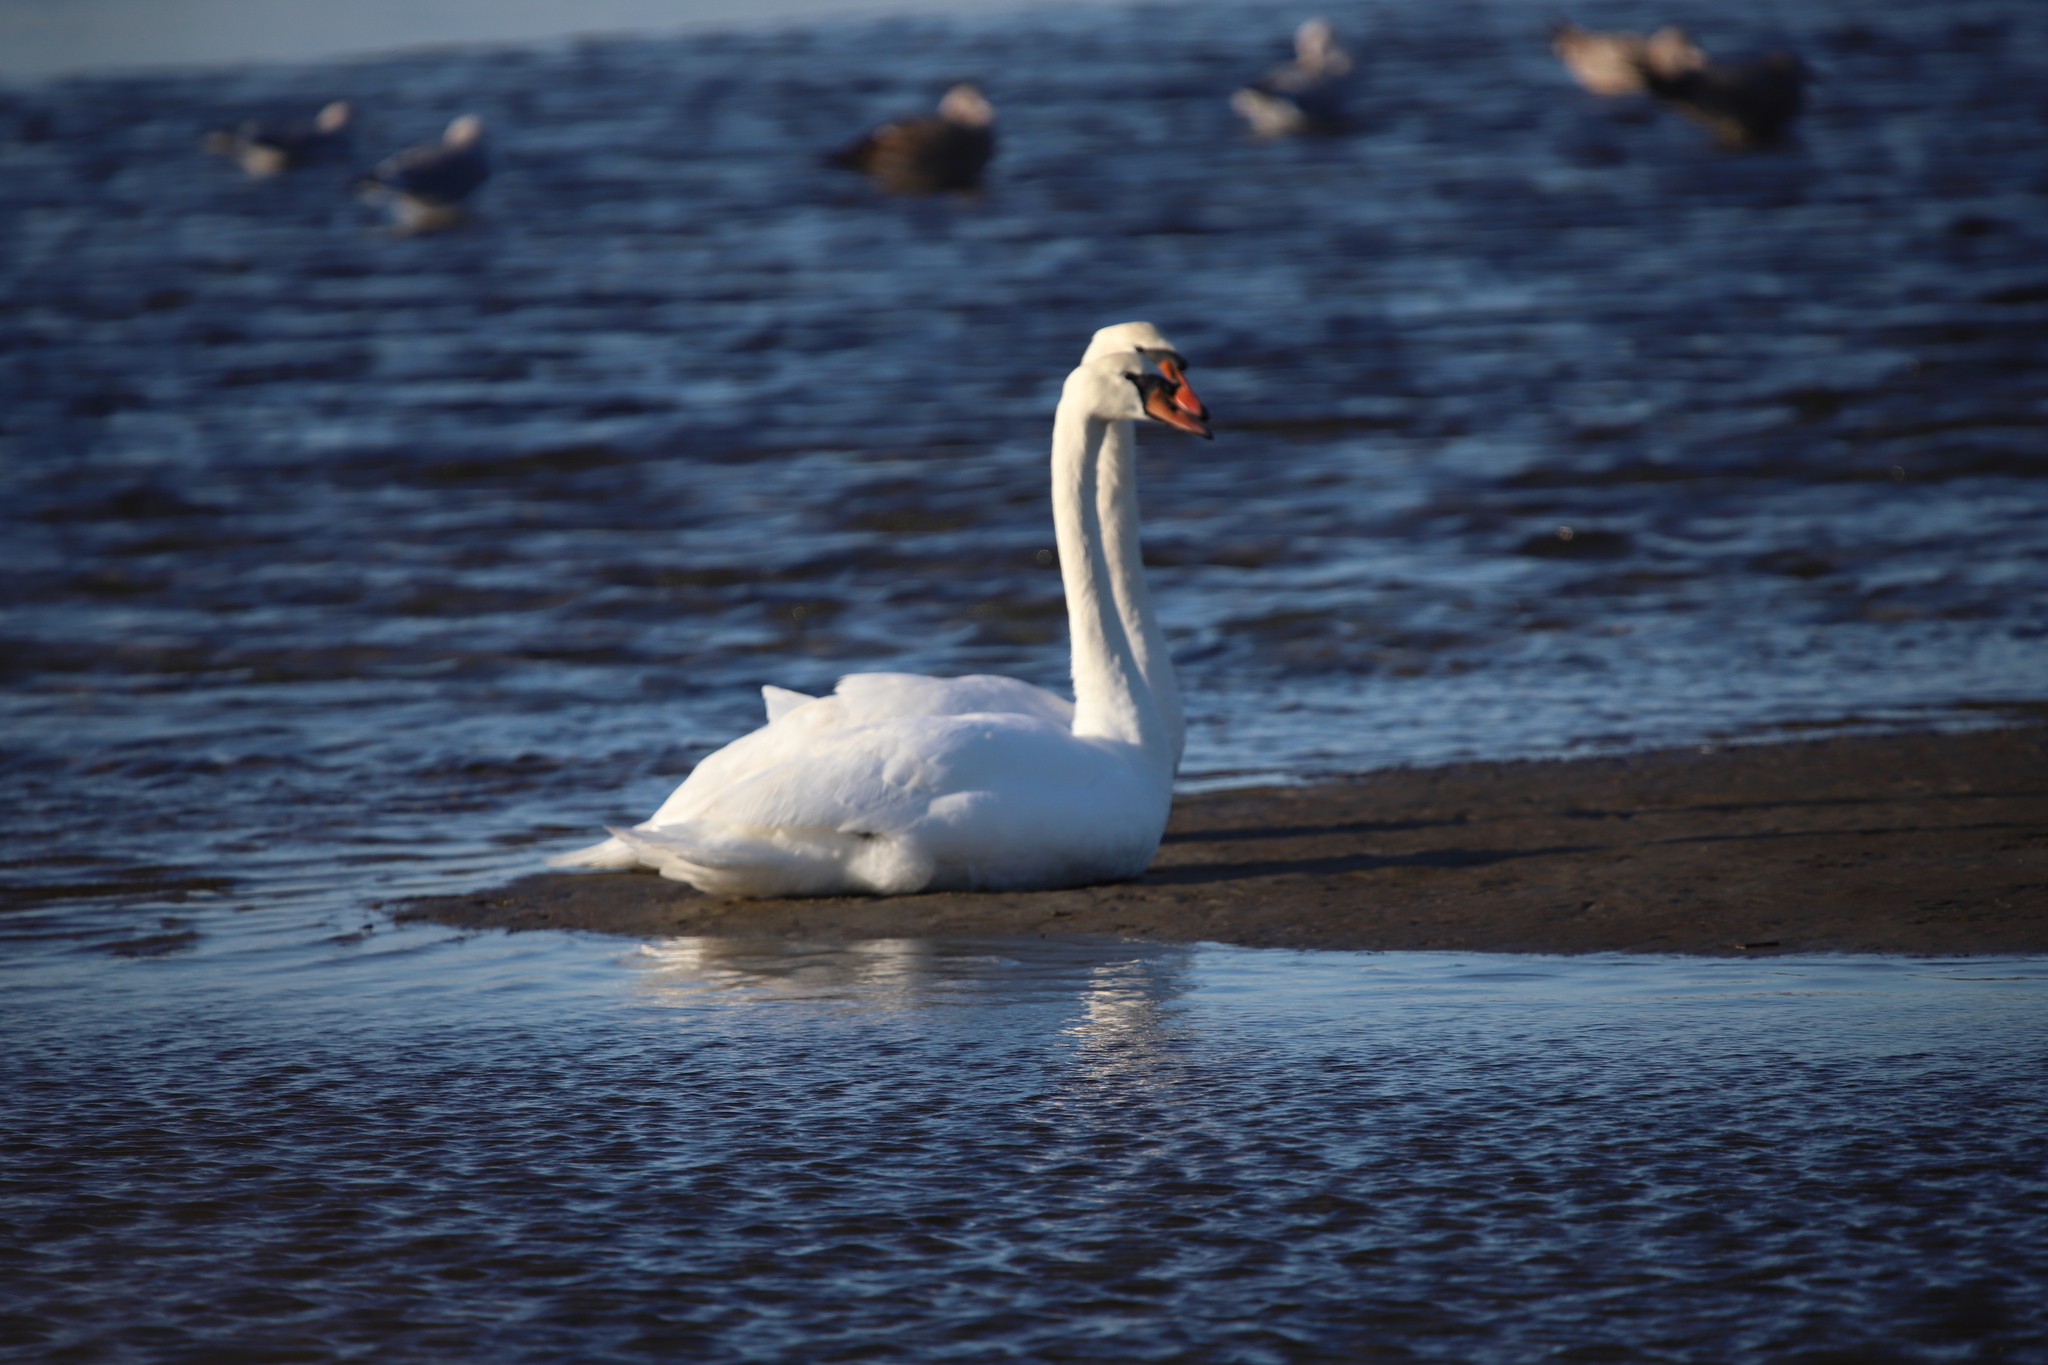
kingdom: Animalia
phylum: Chordata
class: Aves
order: Anseriformes
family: Anatidae
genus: Cygnus
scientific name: Cygnus olor
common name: Mute swan
